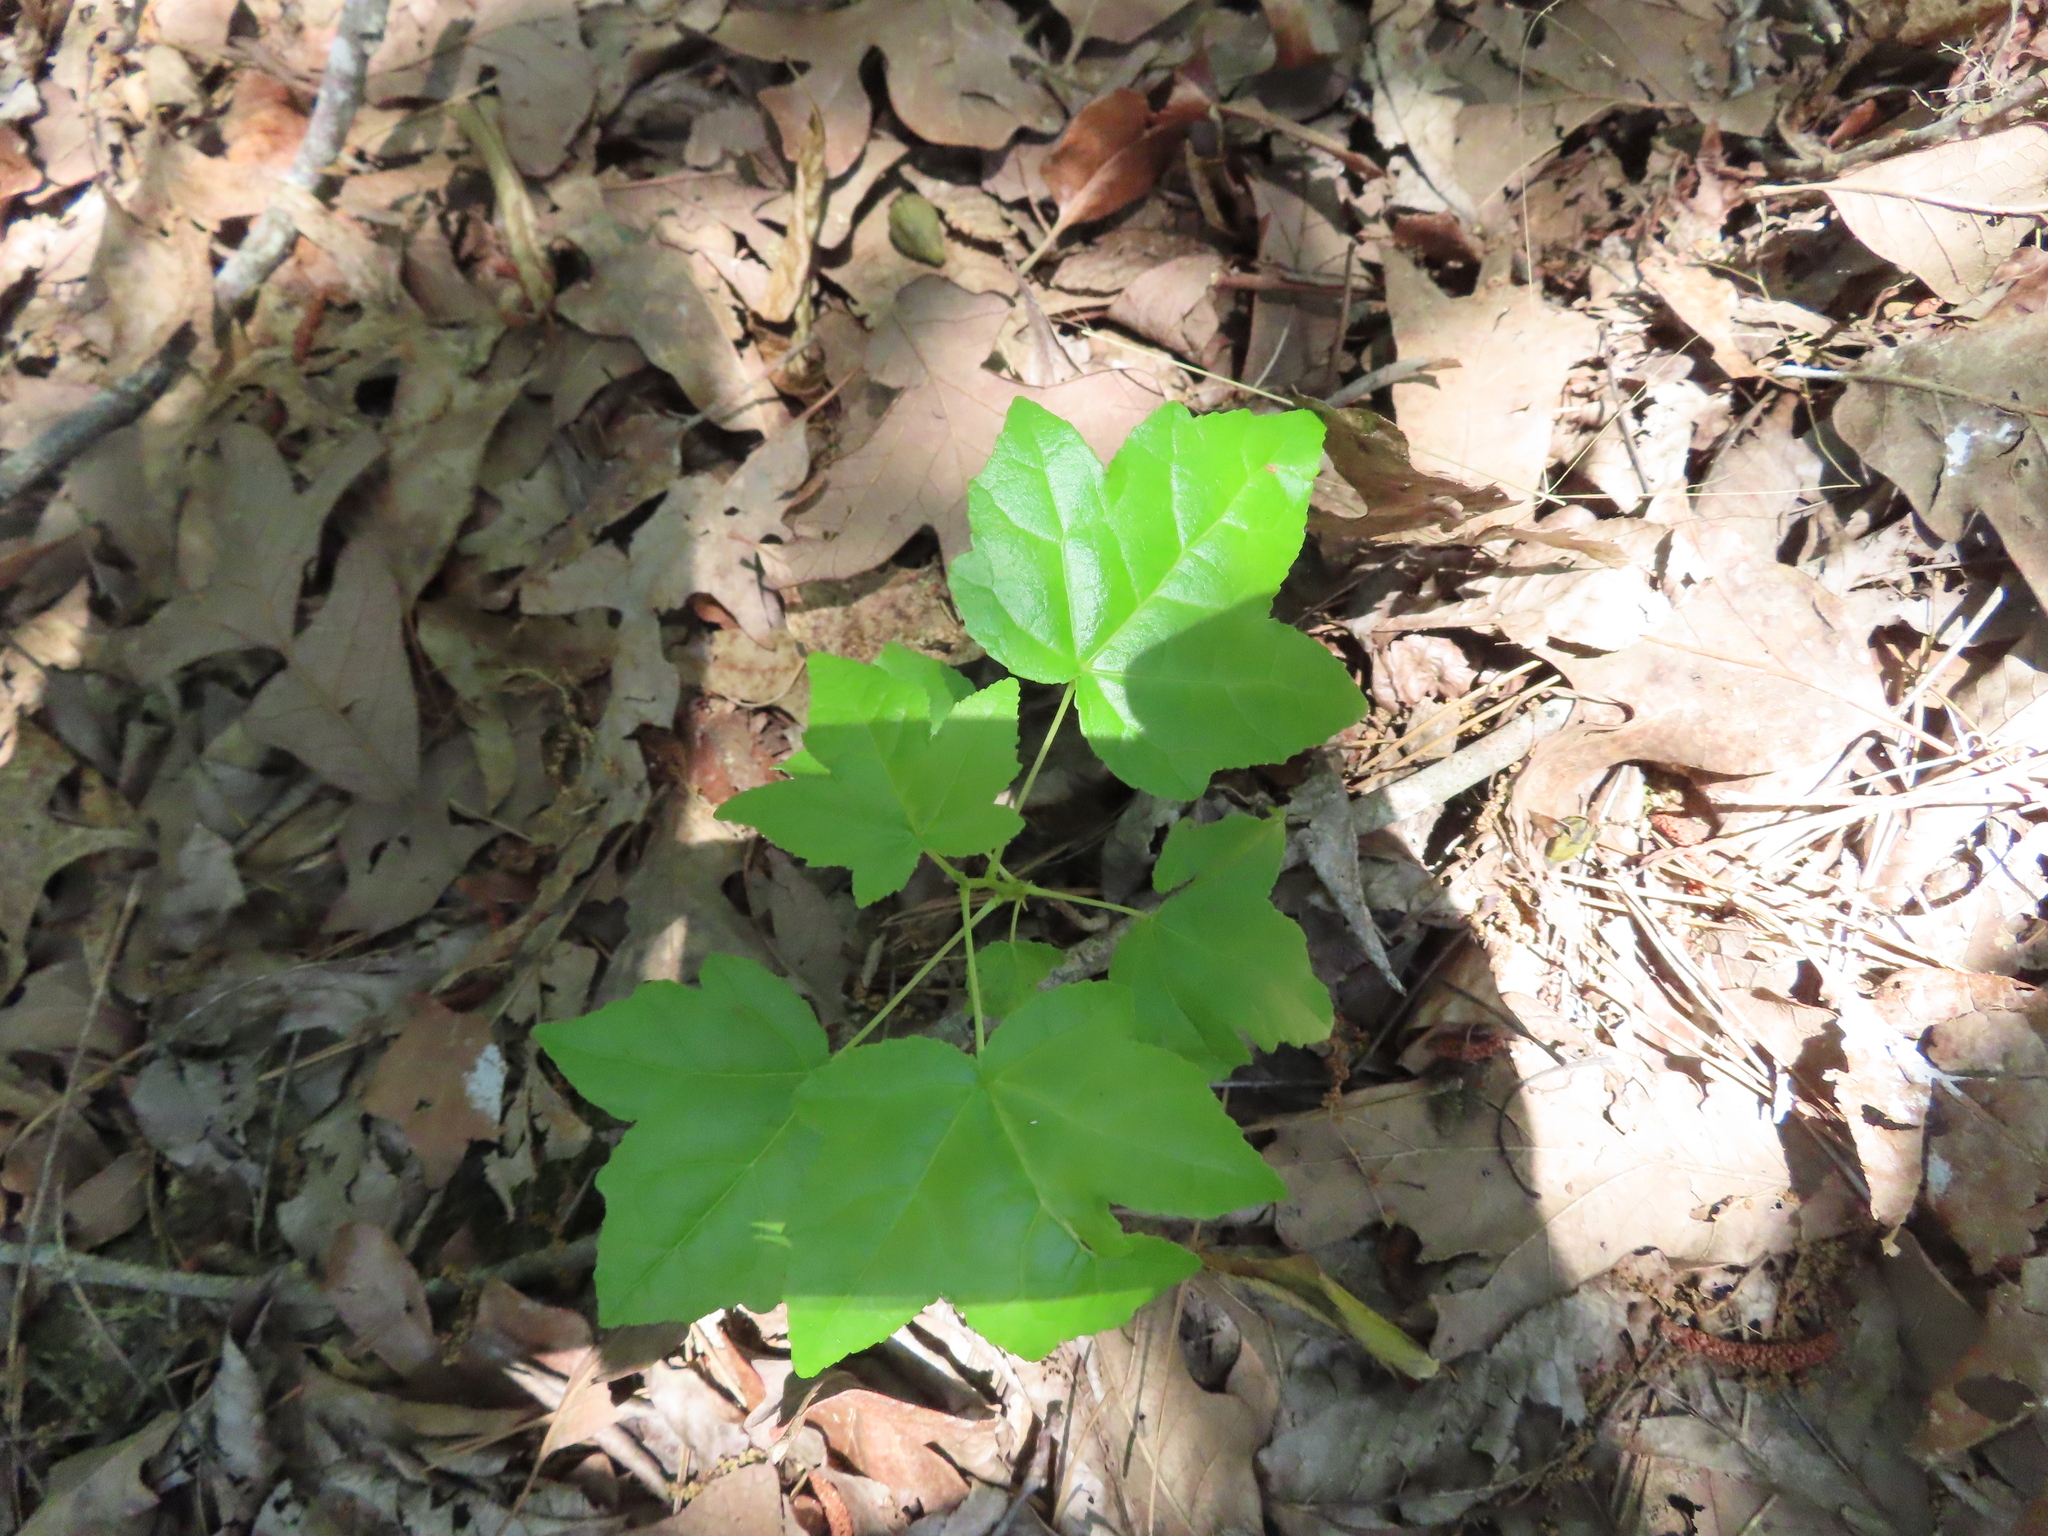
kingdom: Plantae
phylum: Tracheophyta
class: Magnoliopsida
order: Saxifragales
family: Altingiaceae
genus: Liquidambar
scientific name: Liquidambar styraciflua
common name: Sweet gum
